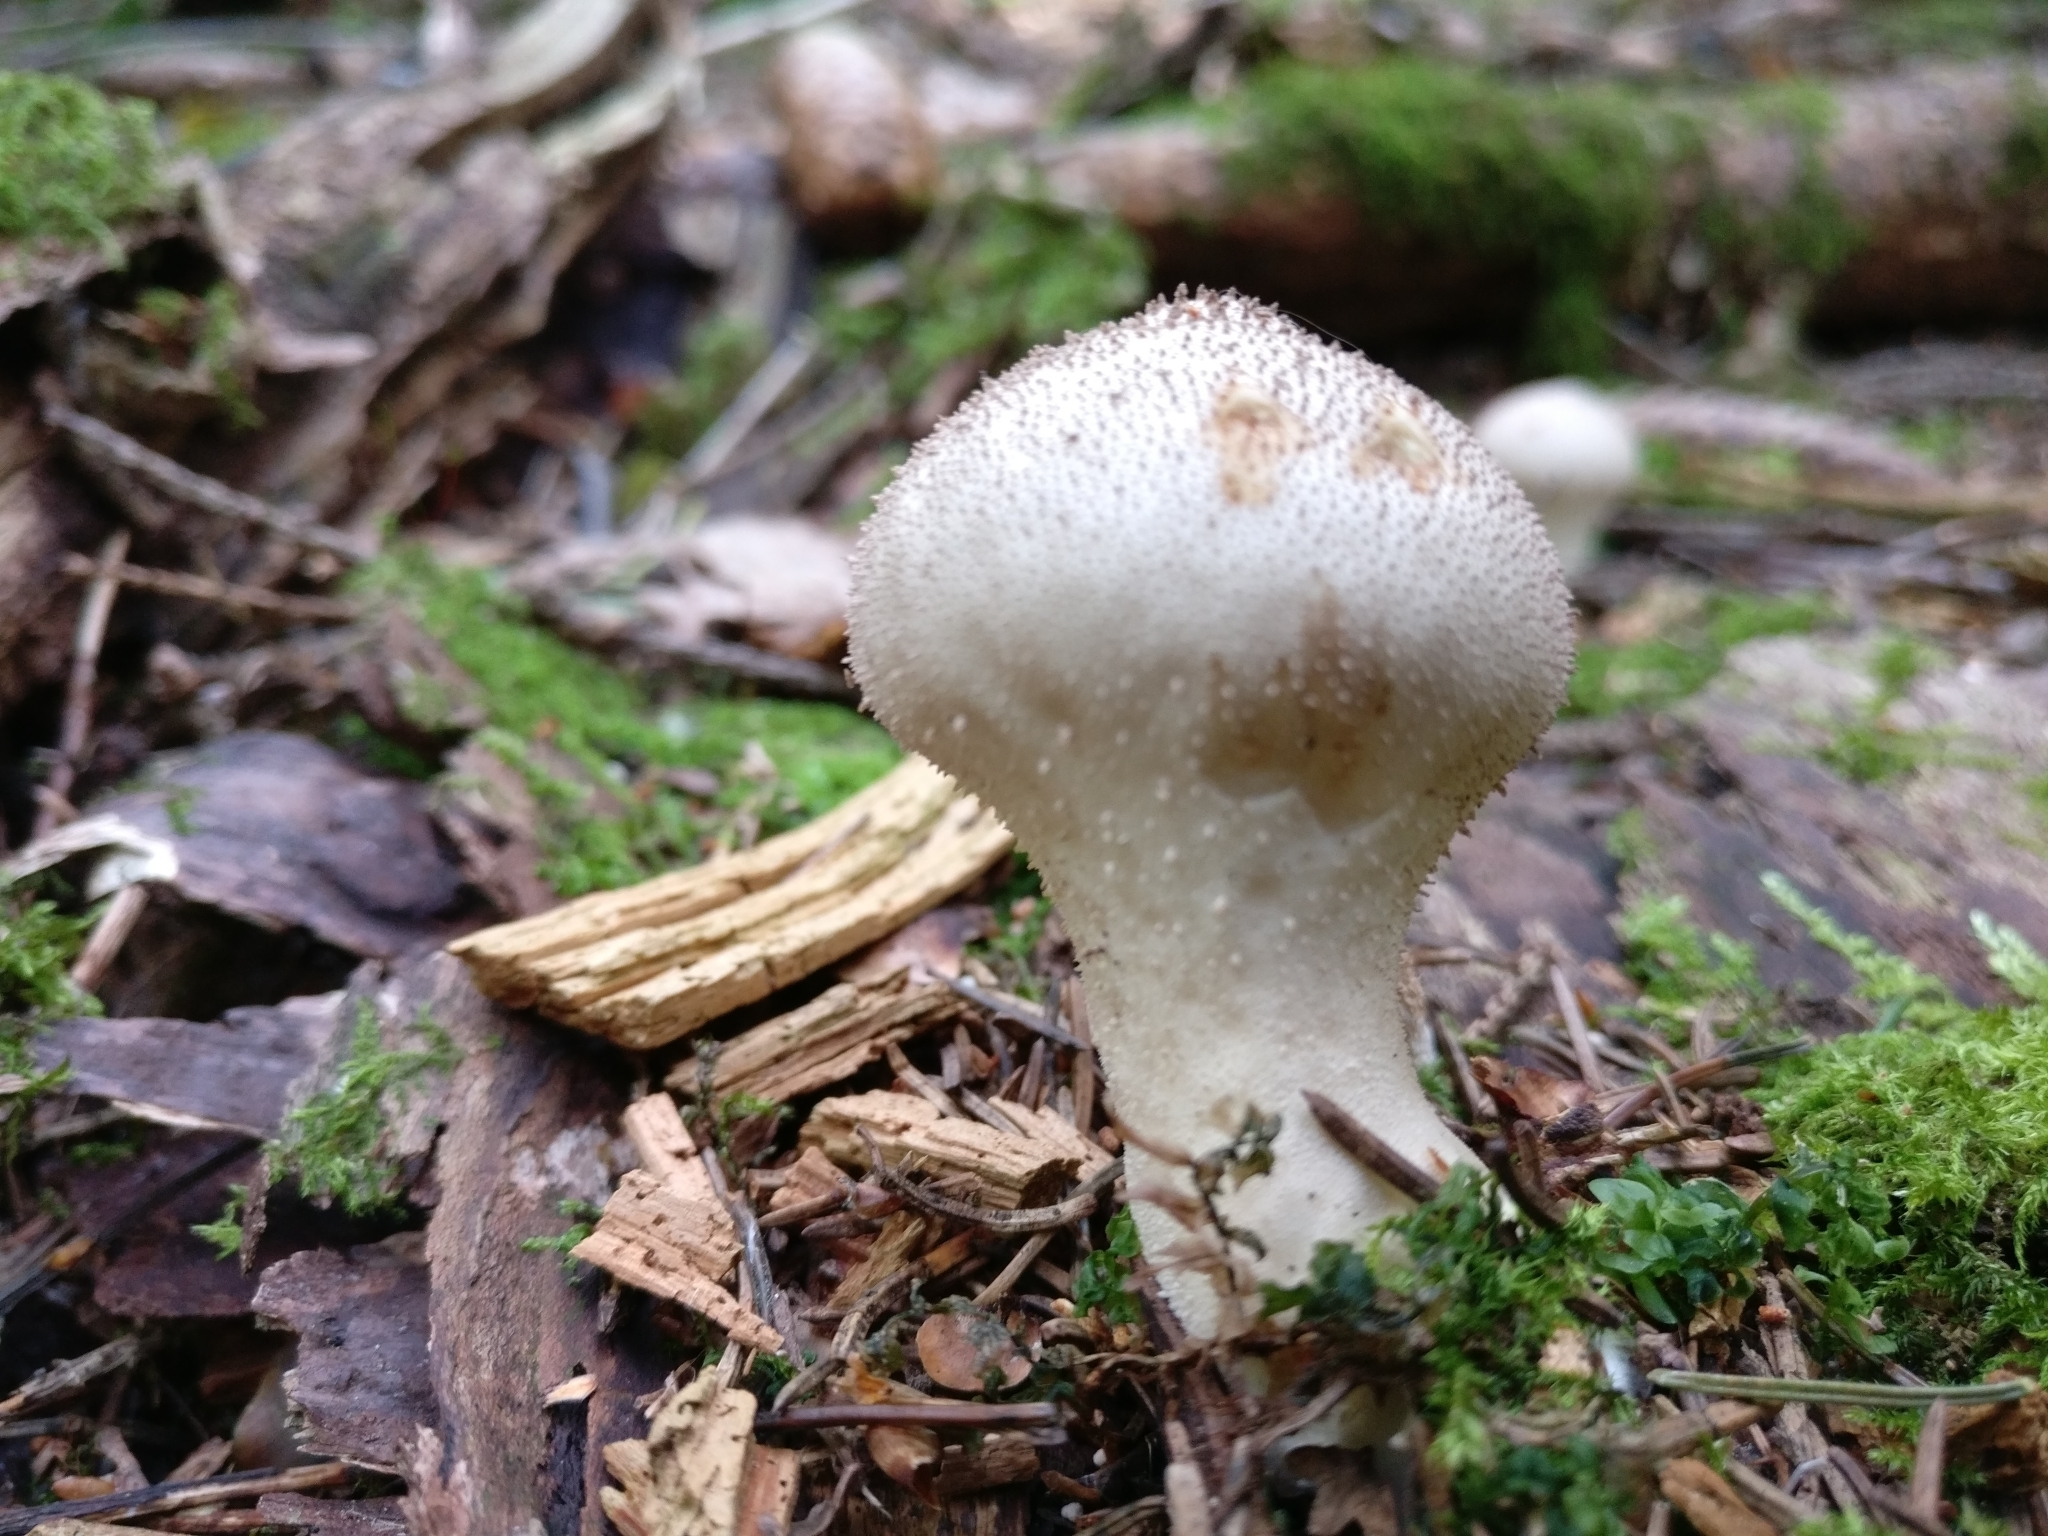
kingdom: Fungi
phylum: Basidiomycota
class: Agaricomycetes
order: Agaricales
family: Lycoperdaceae
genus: Lycoperdon
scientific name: Lycoperdon perlatum
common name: Common puffball
